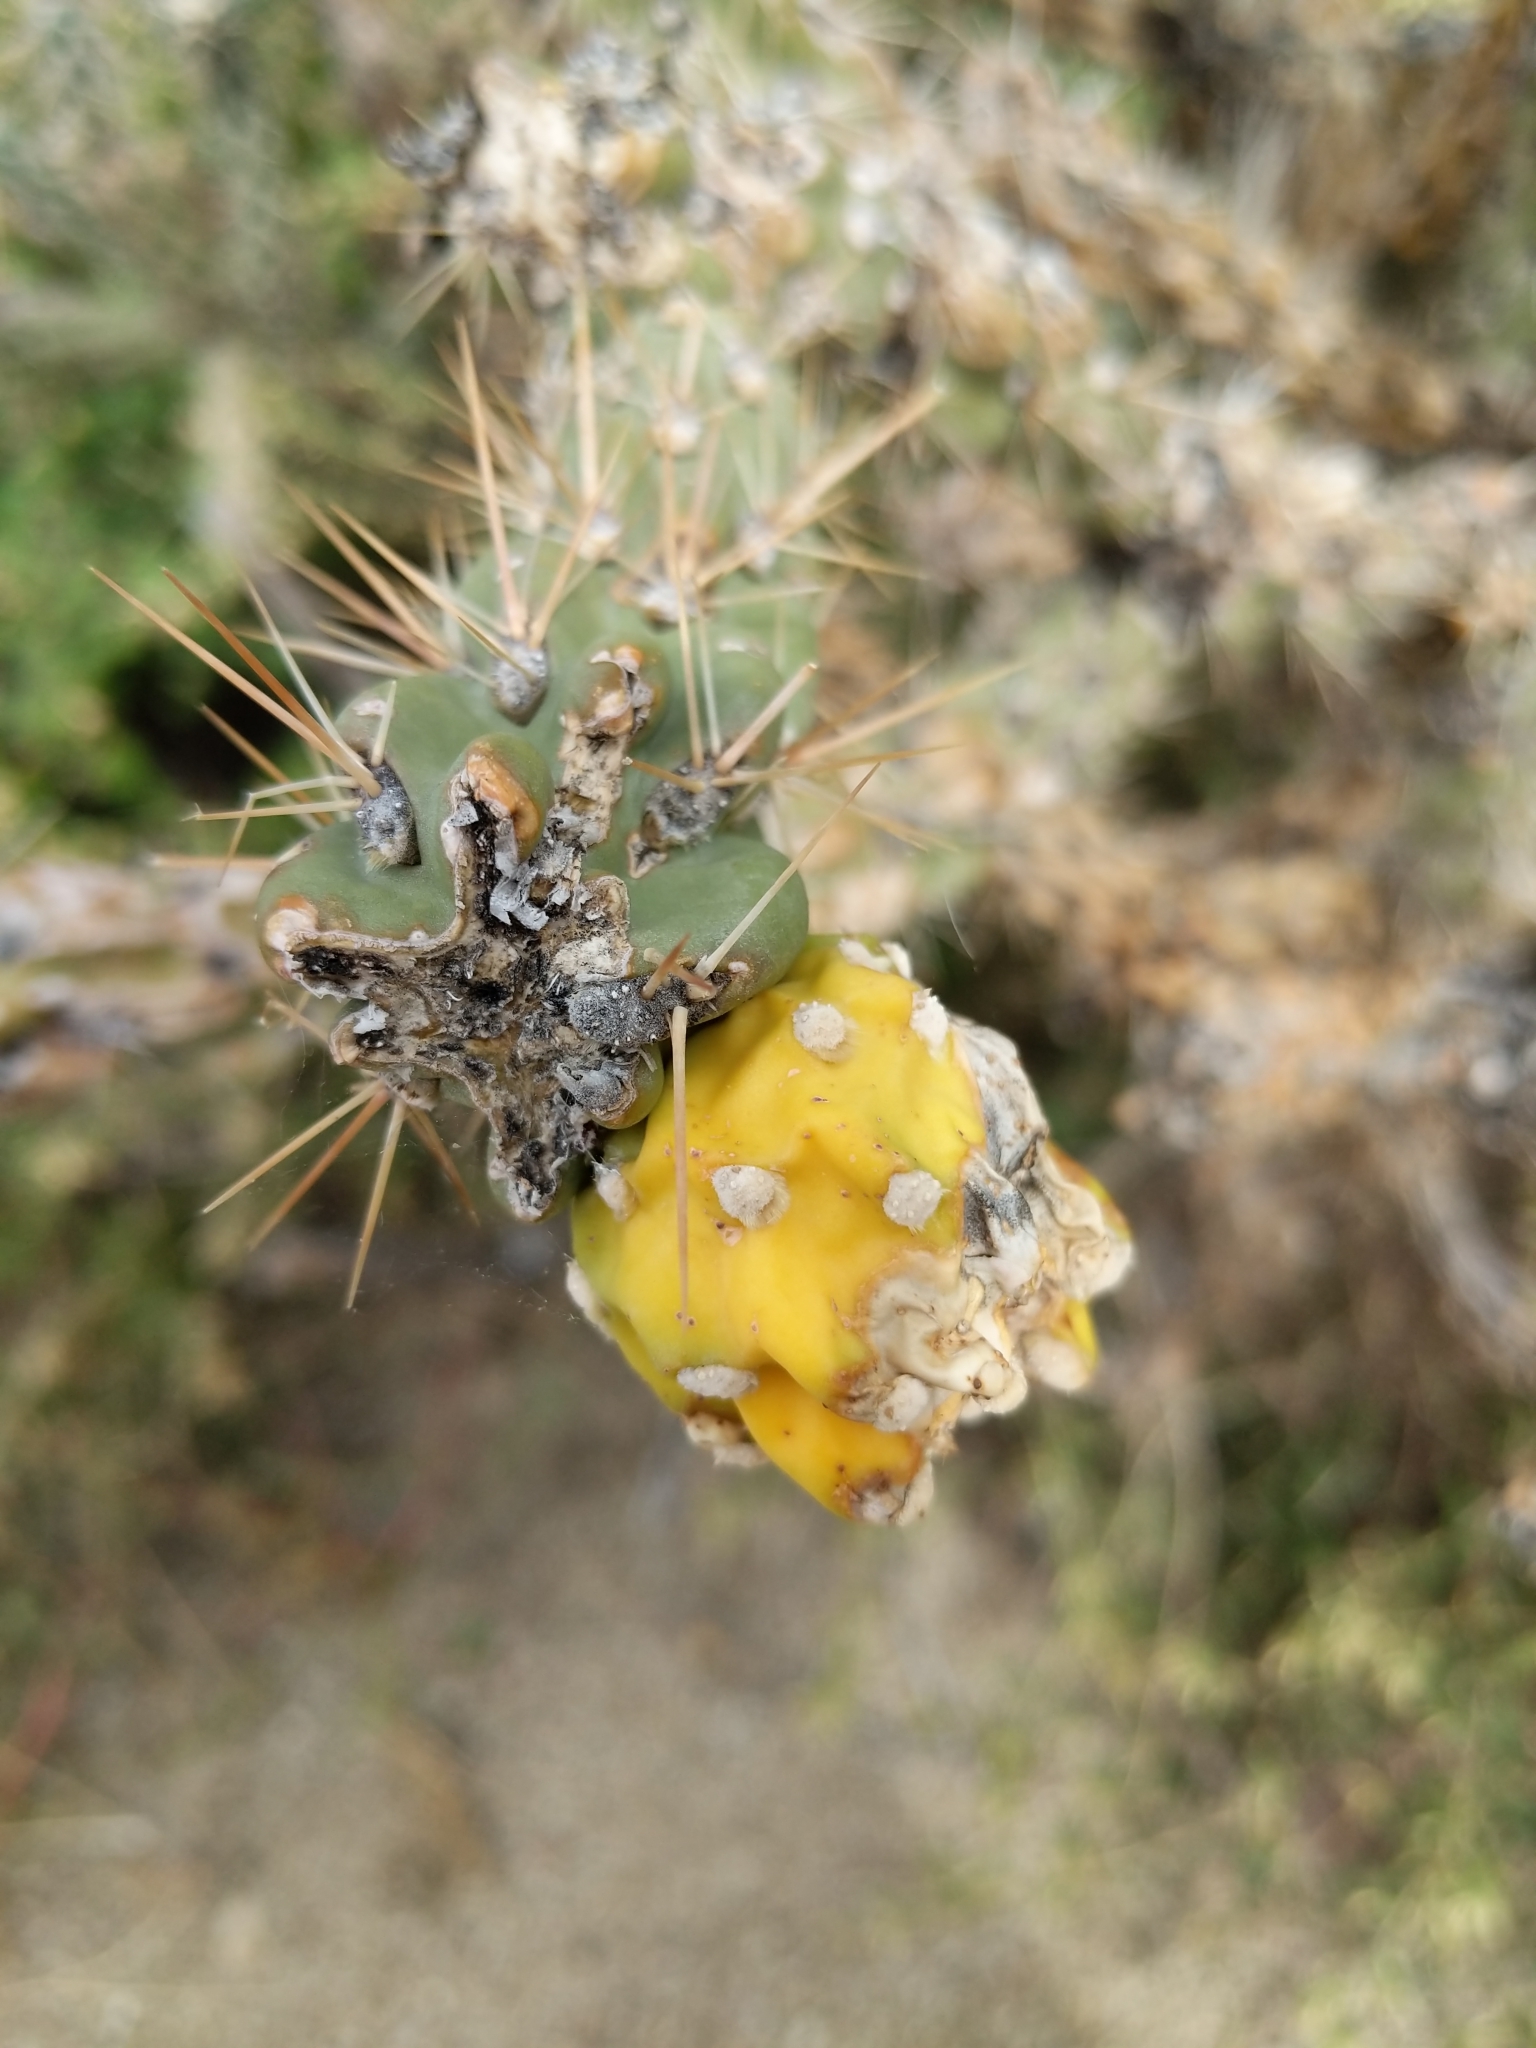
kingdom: Plantae
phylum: Tracheophyta
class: Magnoliopsida
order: Caryophyllales
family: Cactaceae
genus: Cylindropuntia
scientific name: Cylindropuntia imbricata
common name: Candelabrum cactus
